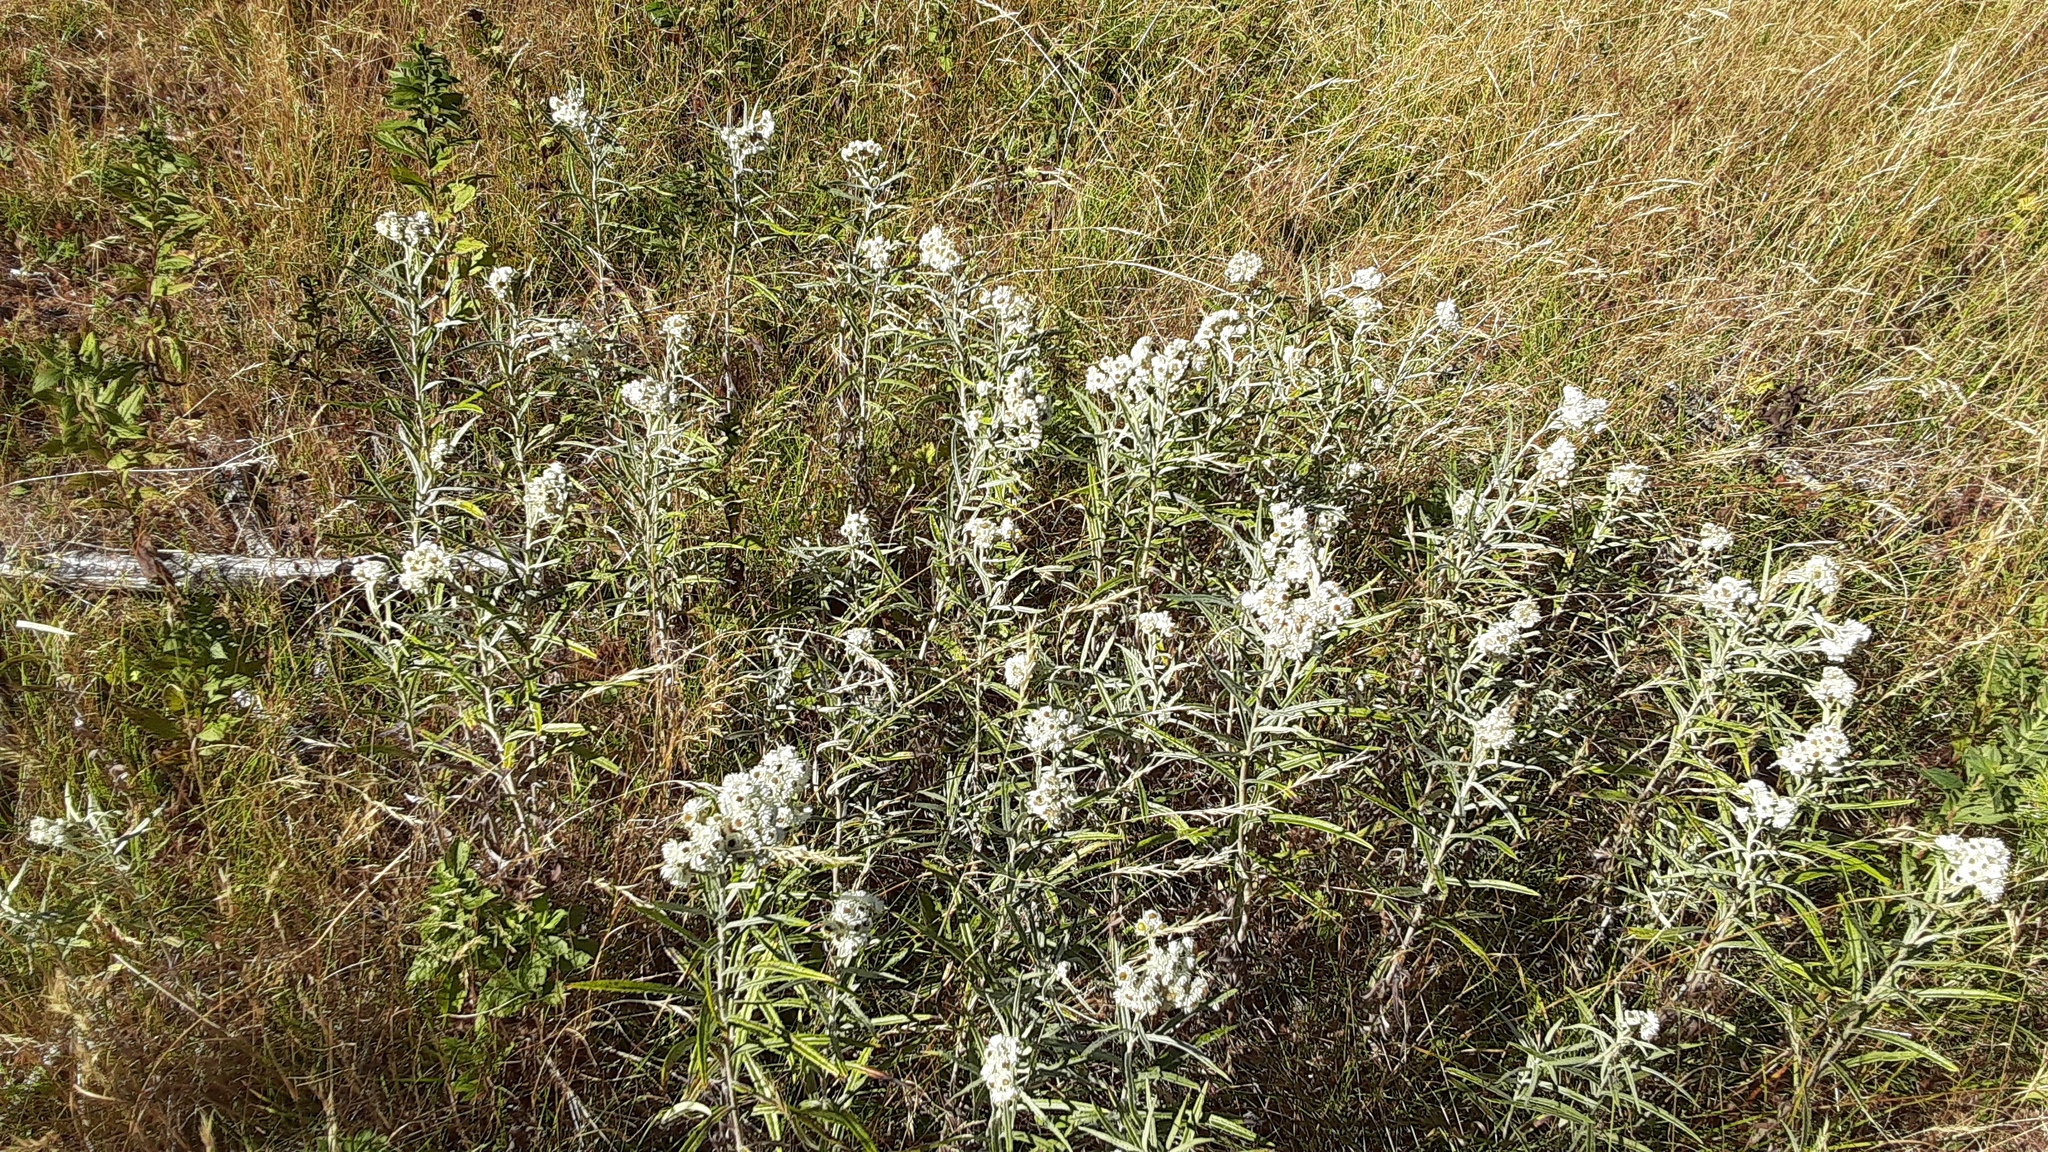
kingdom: Plantae
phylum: Tracheophyta
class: Magnoliopsida
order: Asterales
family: Asteraceae
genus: Anaphalis
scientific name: Anaphalis margaritacea
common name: Pearly everlasting
